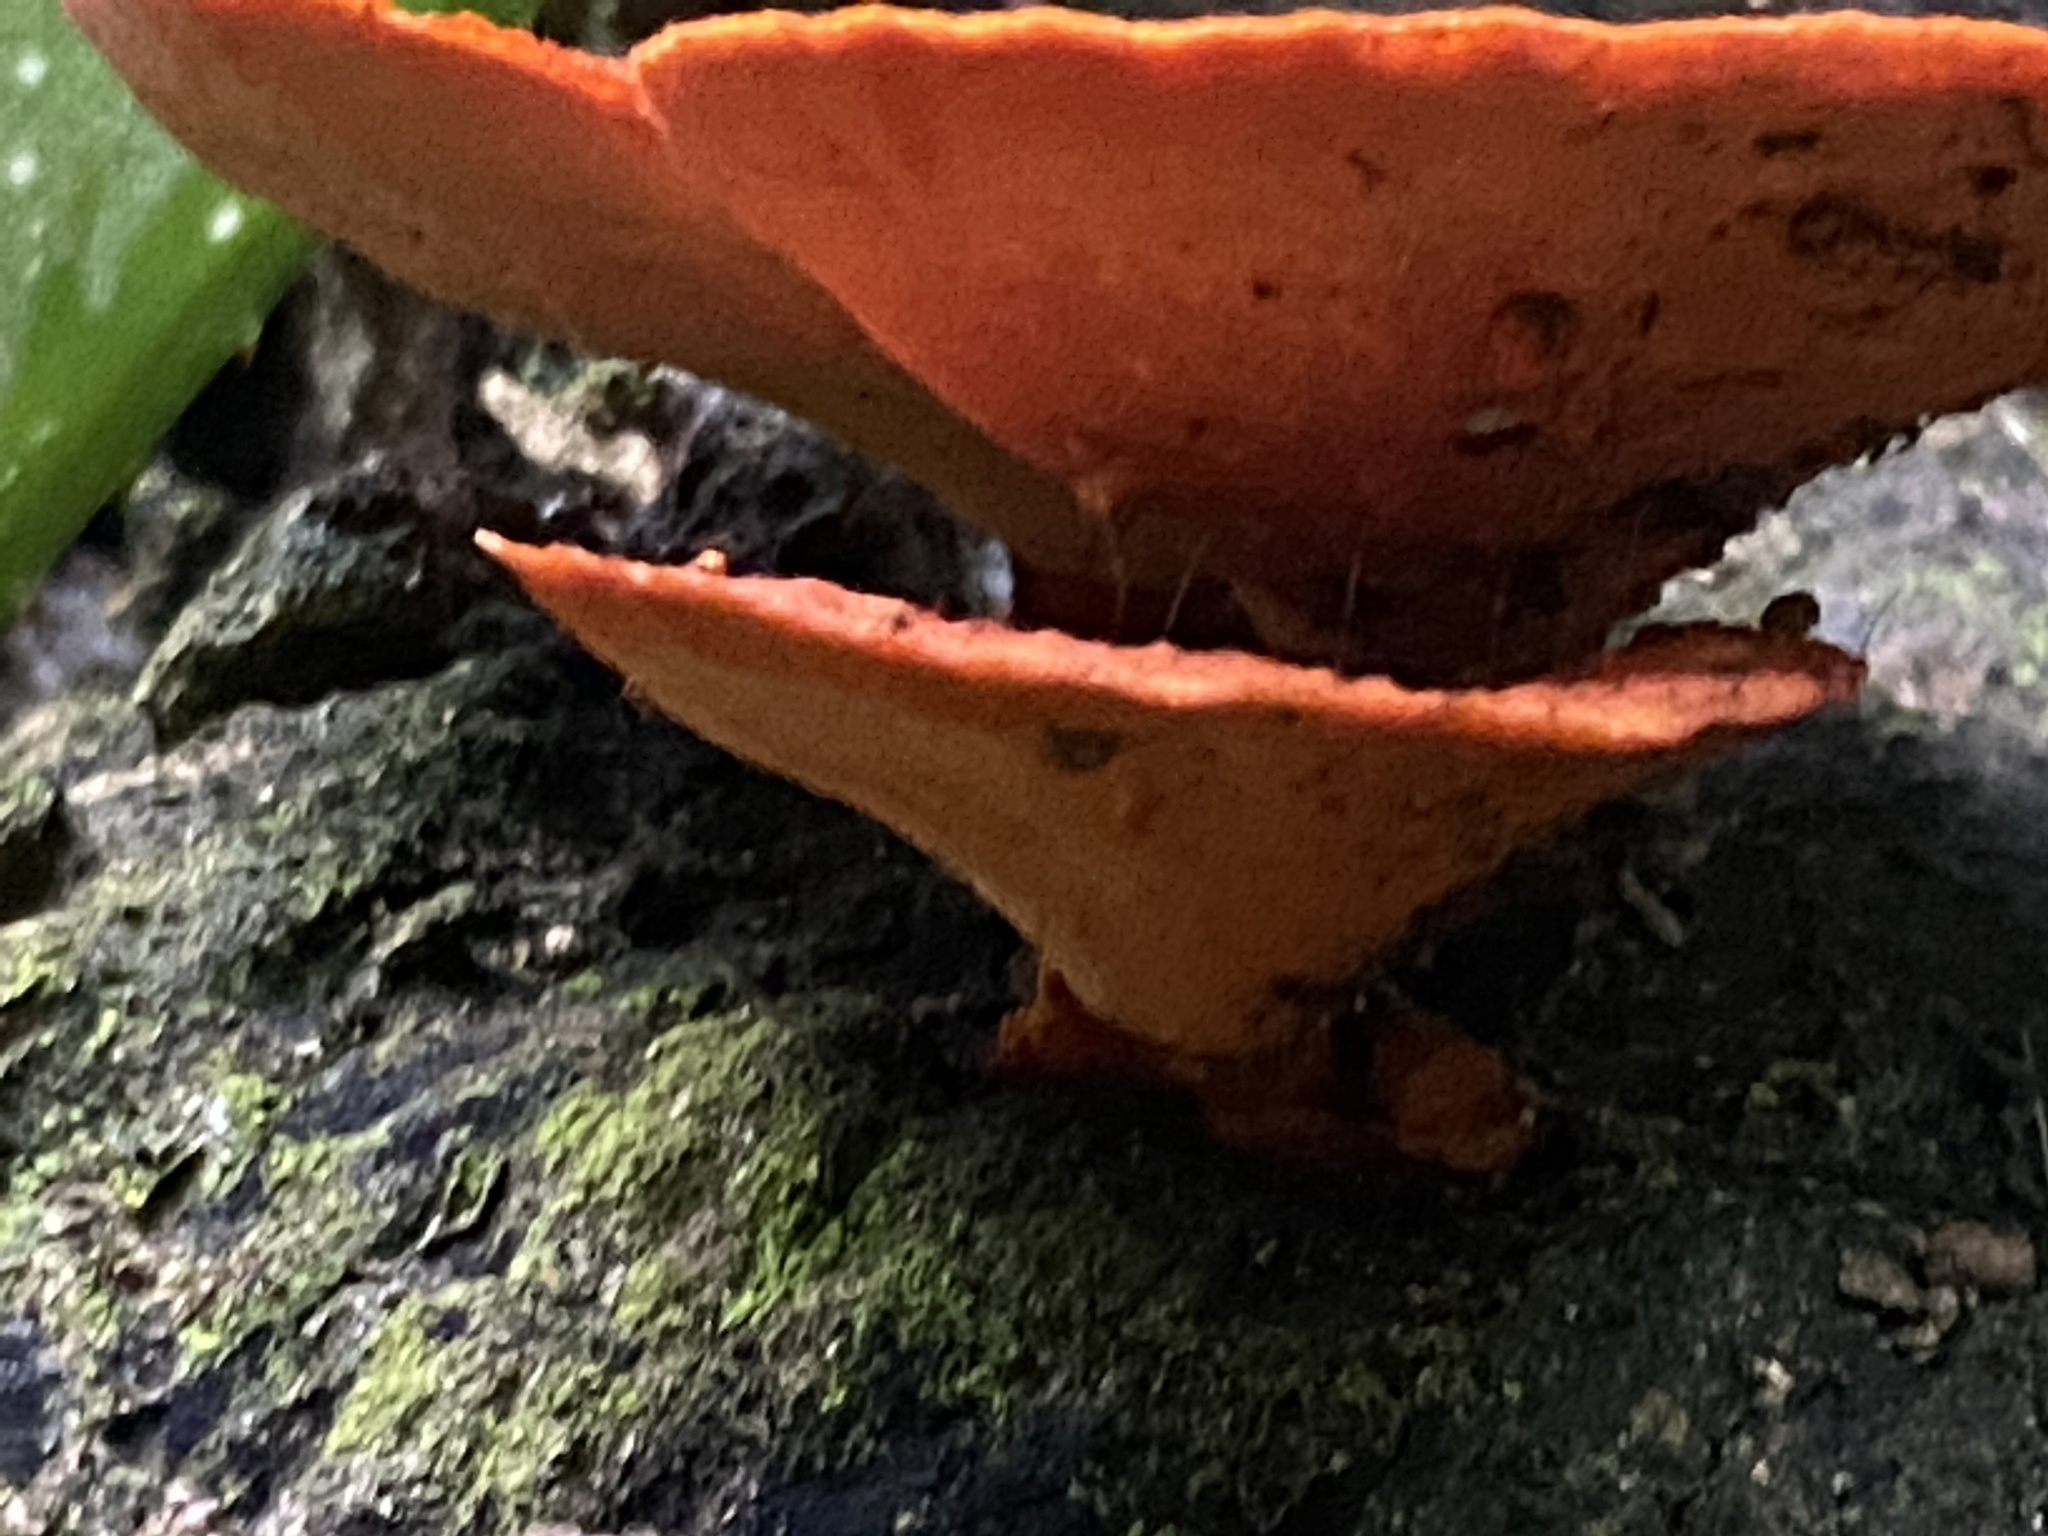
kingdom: Fungi
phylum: Basidiomycota
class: Agaricomycetes
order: Polyporales
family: Polyporaceae
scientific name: Polyporaceae
